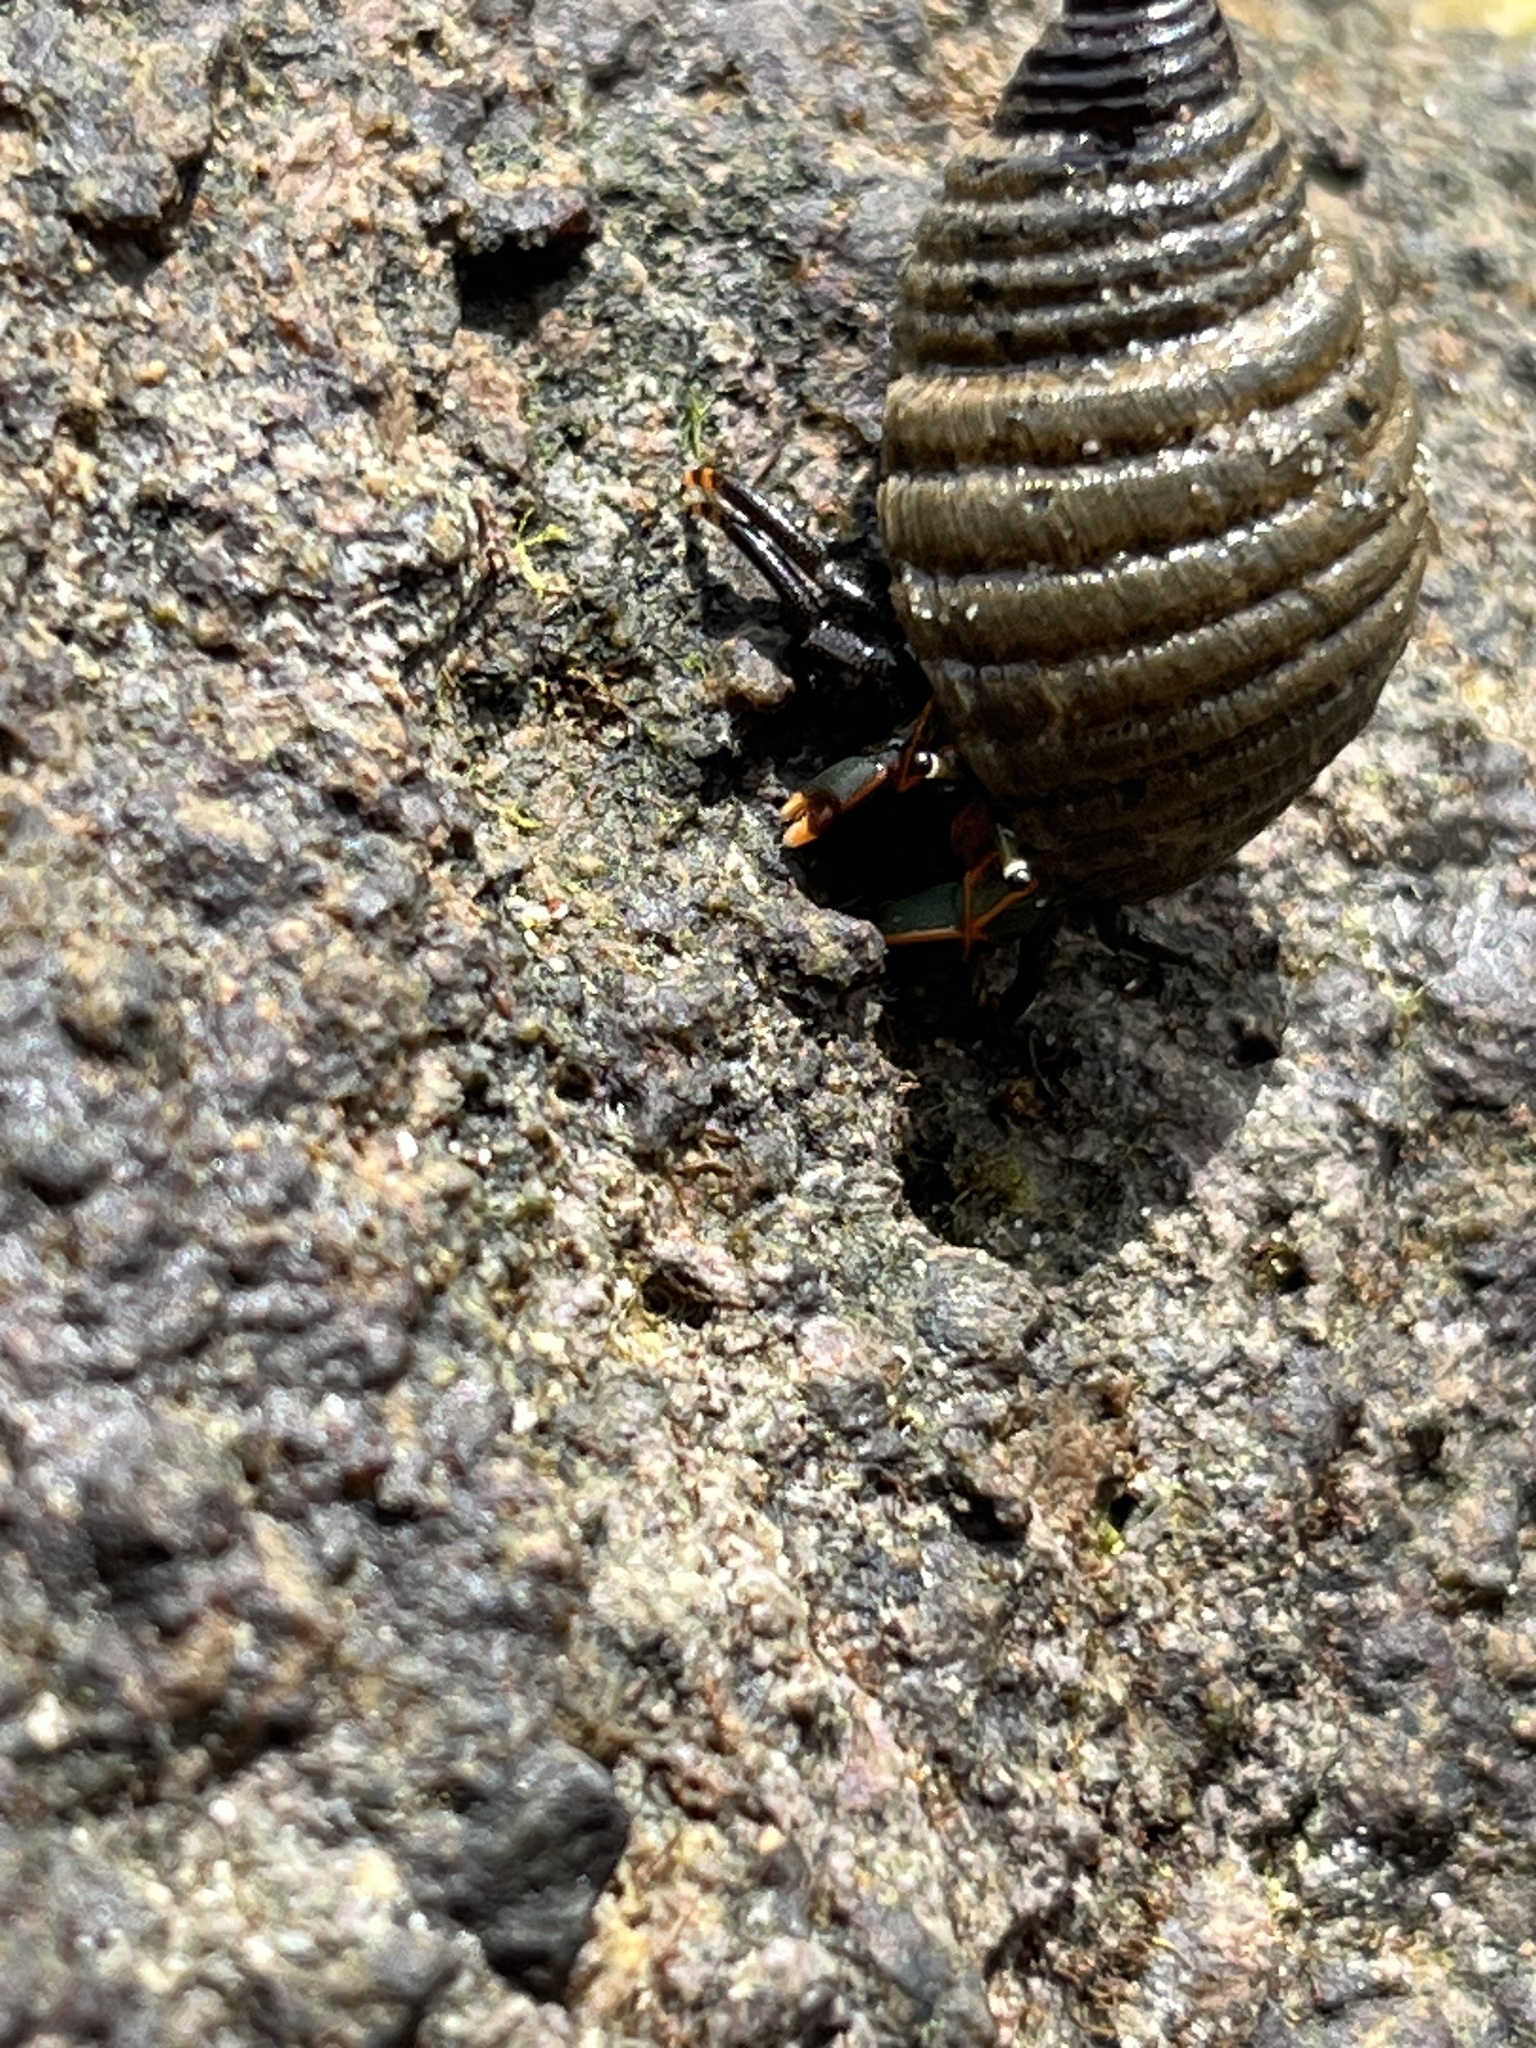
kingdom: Animalia
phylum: Arthropoda
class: Malacostraca
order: Decapoda
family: Diogenidae
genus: Calcinus
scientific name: Calcinus obscurus
